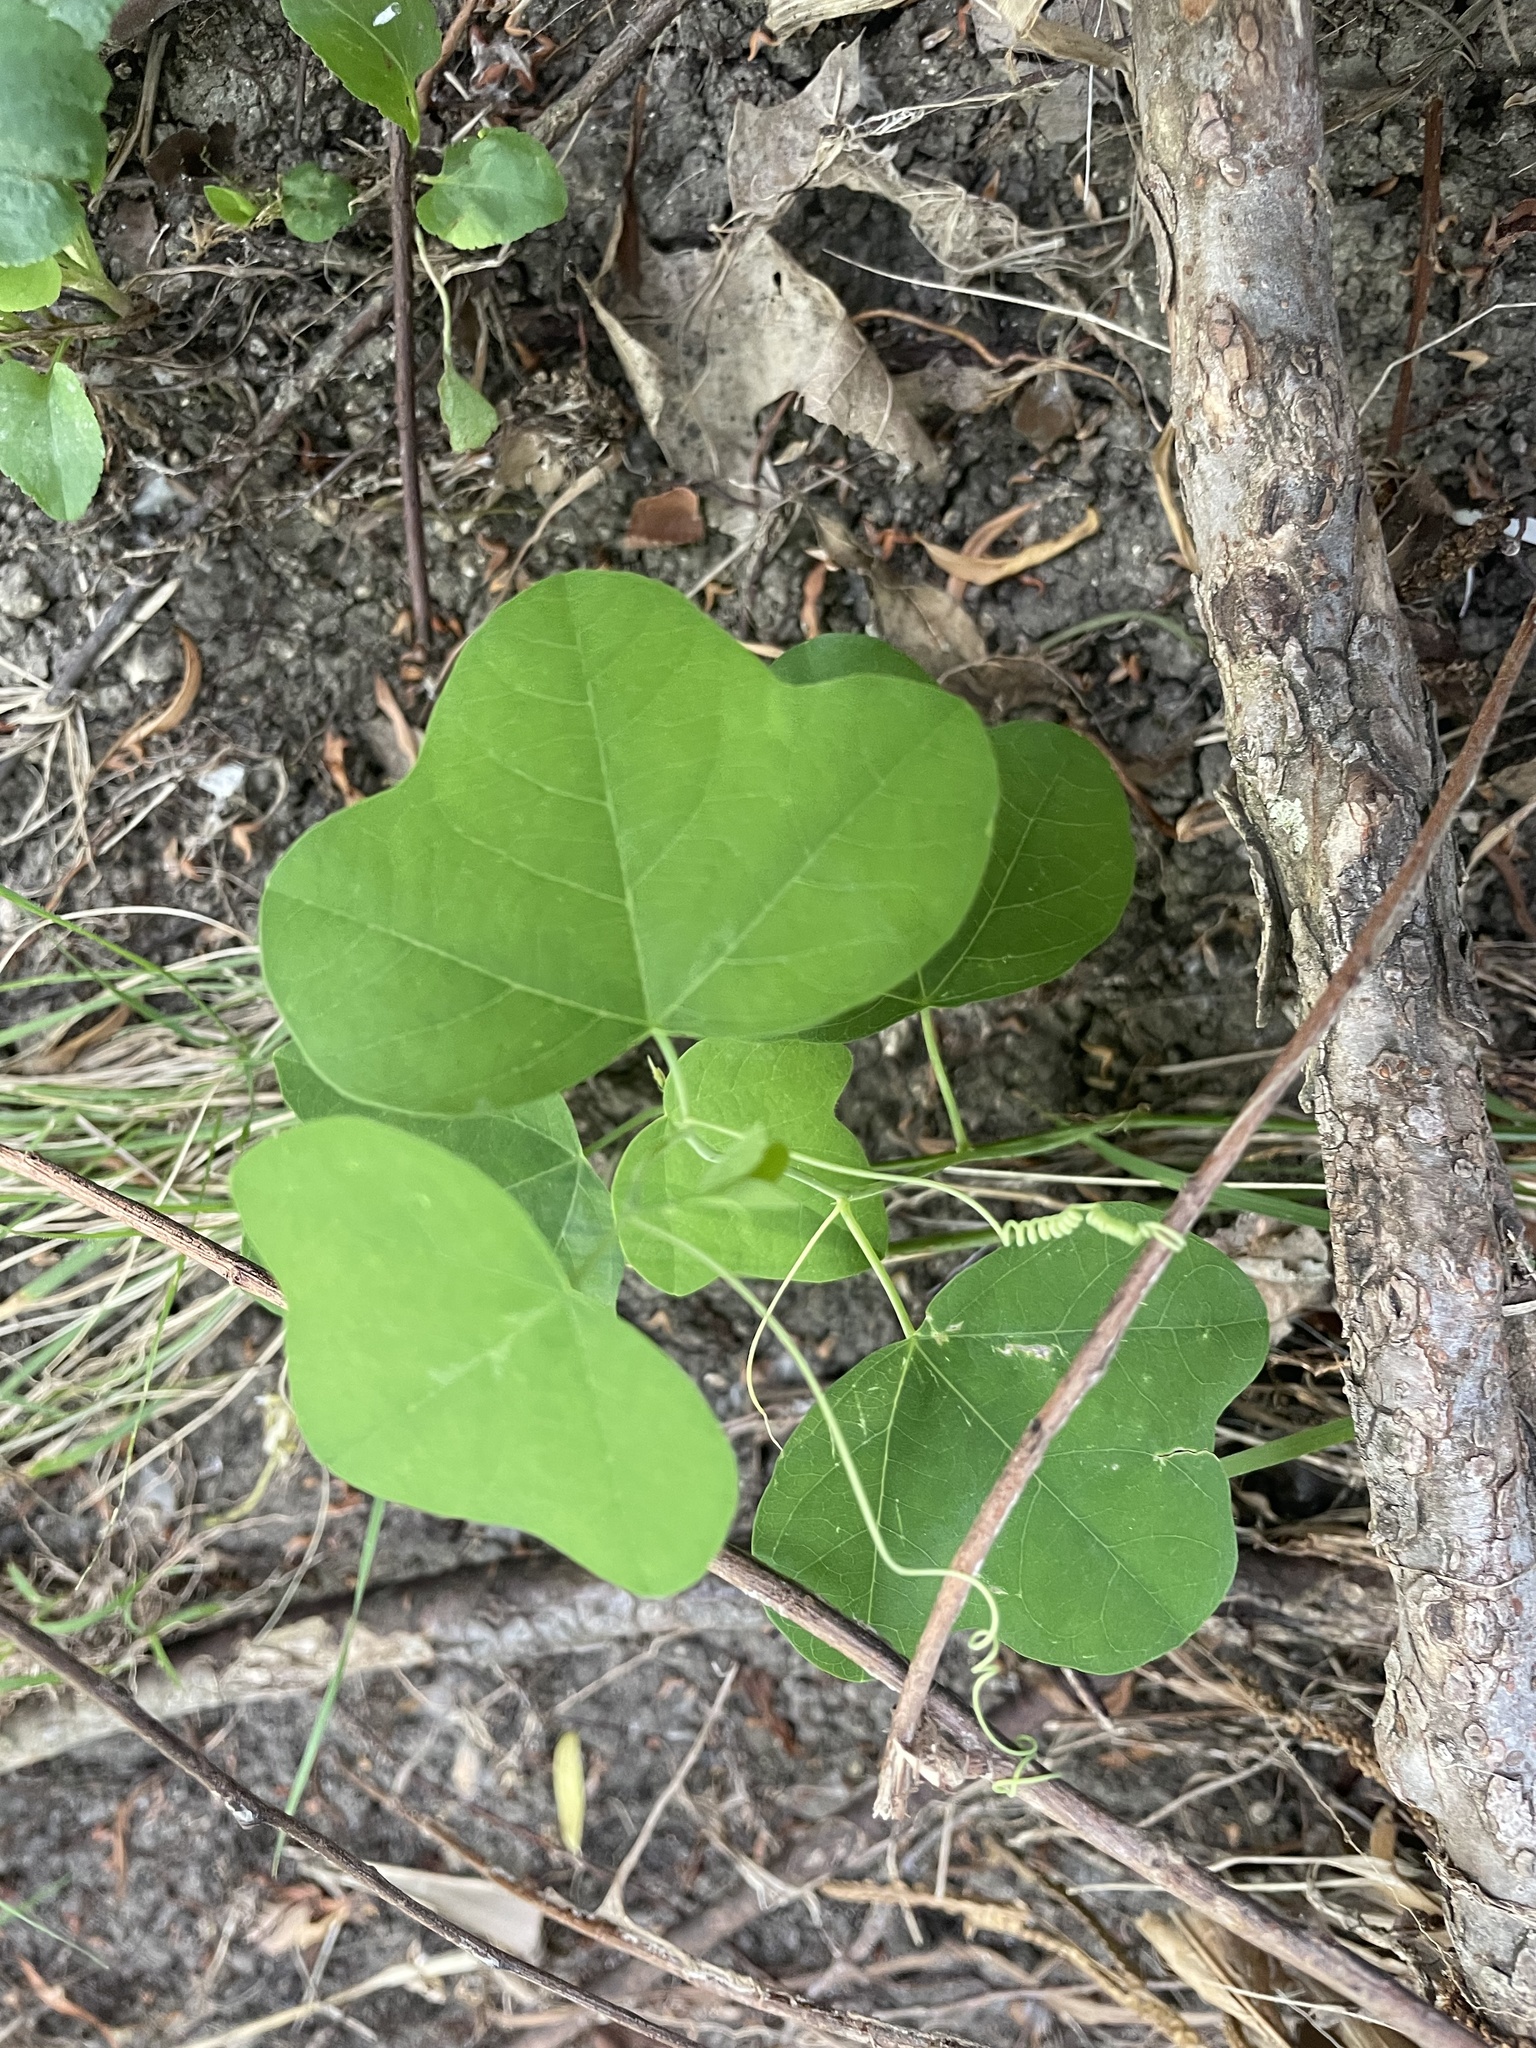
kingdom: Plantae
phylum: Tracheophyta
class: Magnoliopsida
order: Malpighiales
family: Passifloraceae
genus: Passiflora
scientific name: Passiflora lutea
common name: Yellow passionflower
